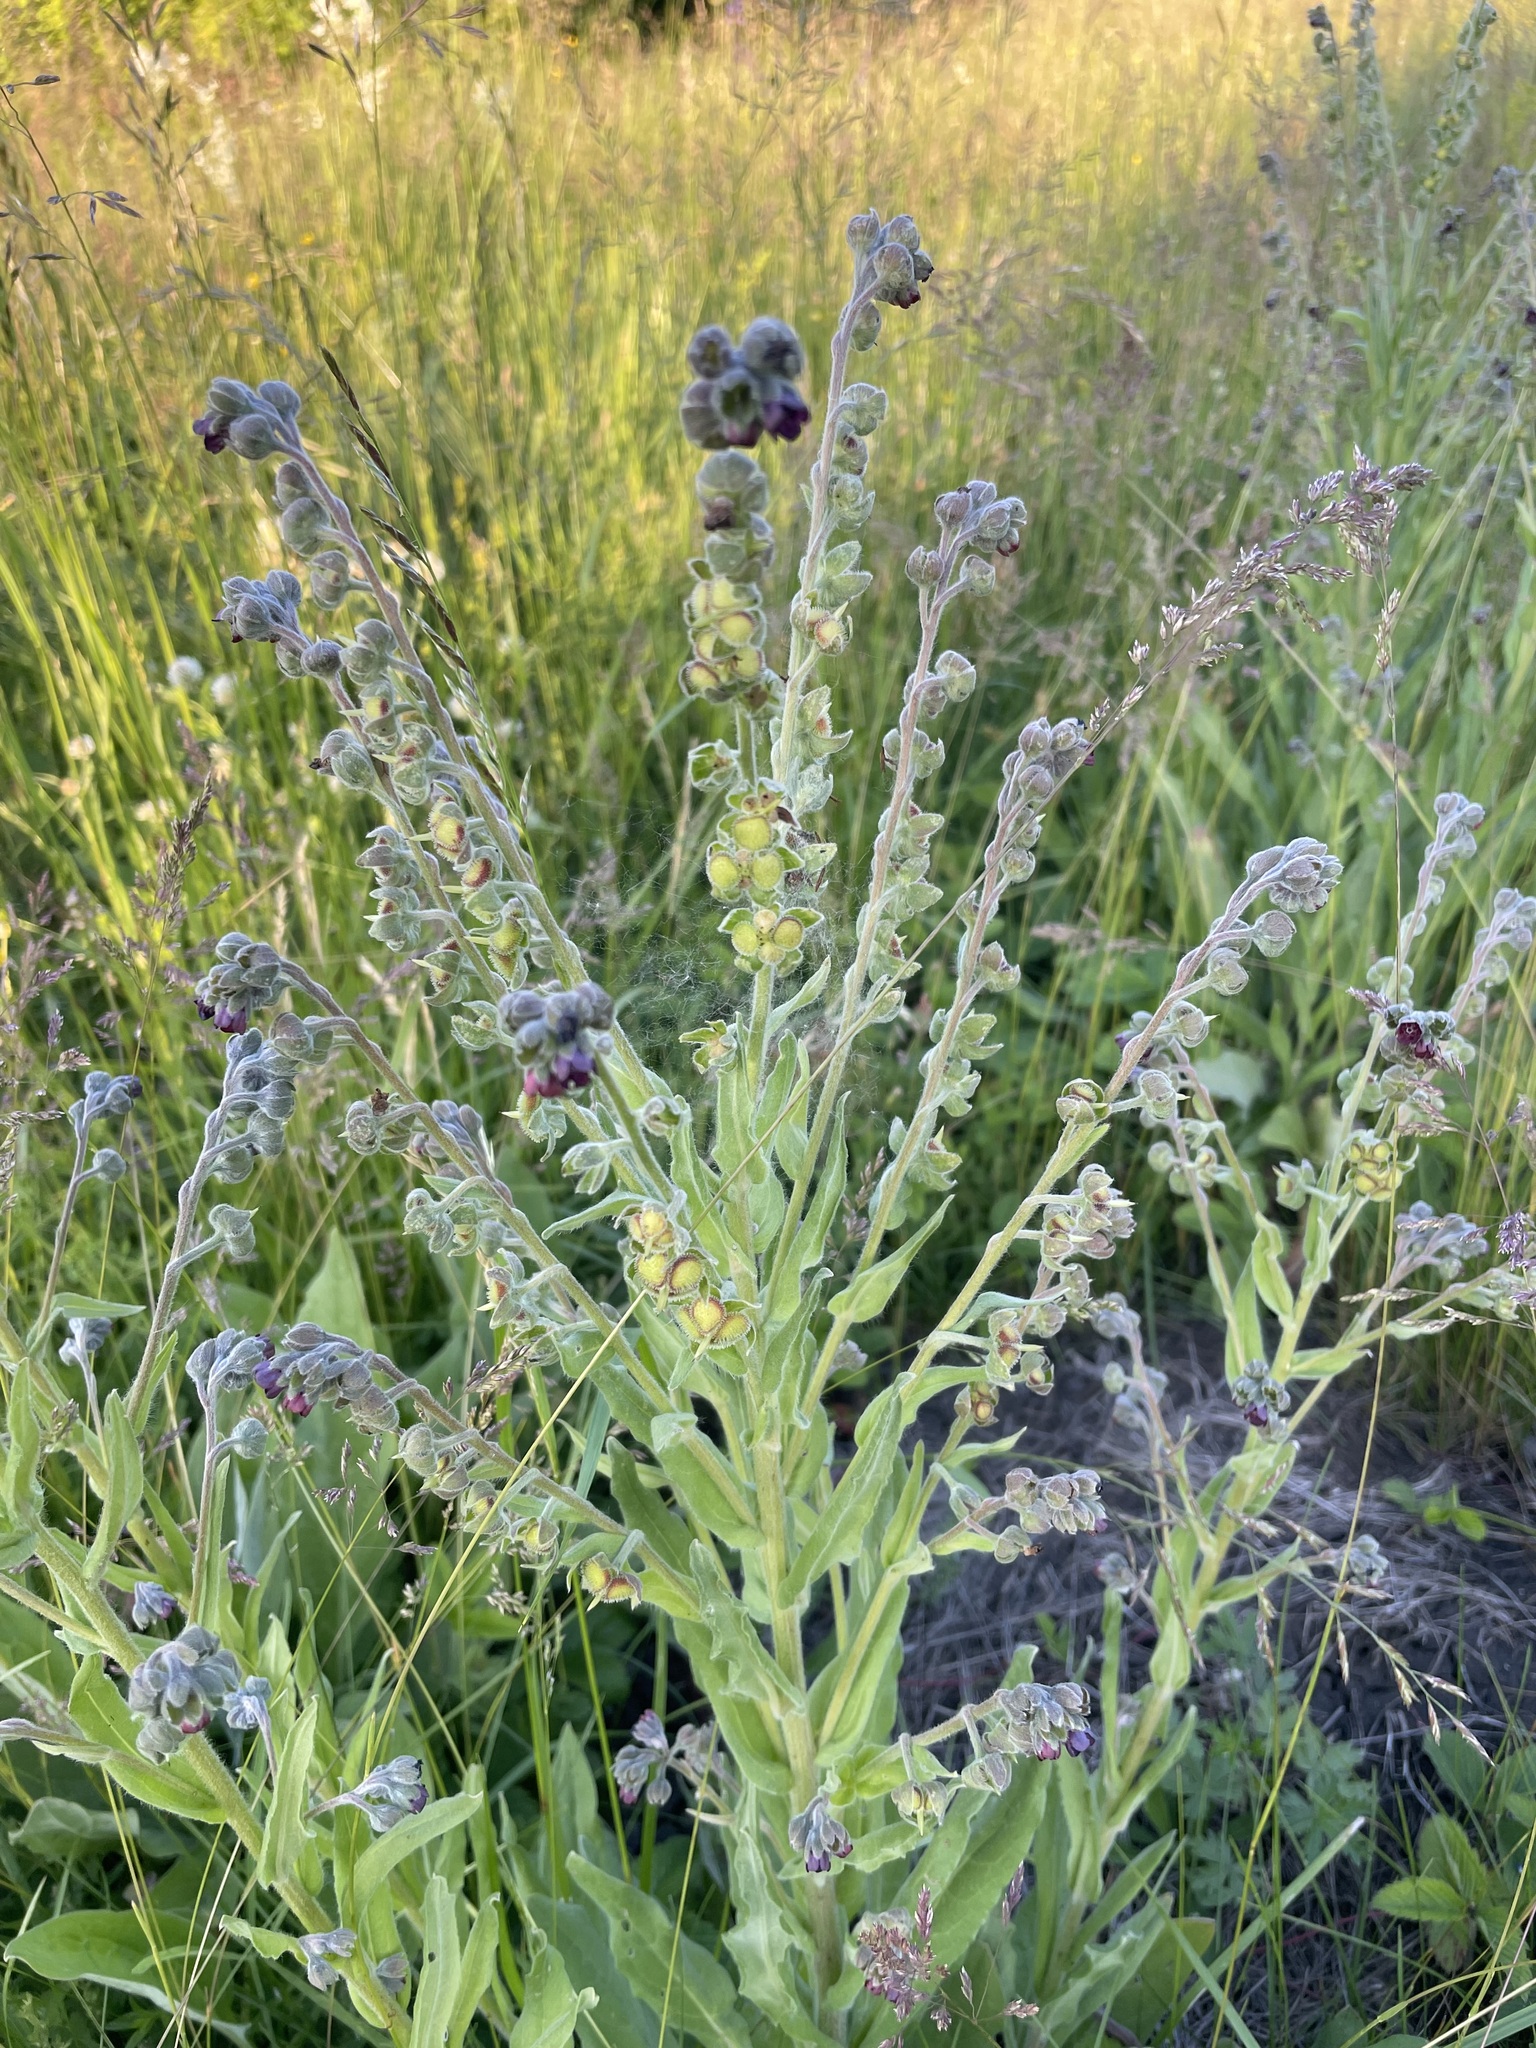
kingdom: Plantae
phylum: Tracheophyta
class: Magnoliopsida
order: Boraginales
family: Boraginaceae
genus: Cynoglossum
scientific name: Cynoglossum officinale
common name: Hound's-tongue
